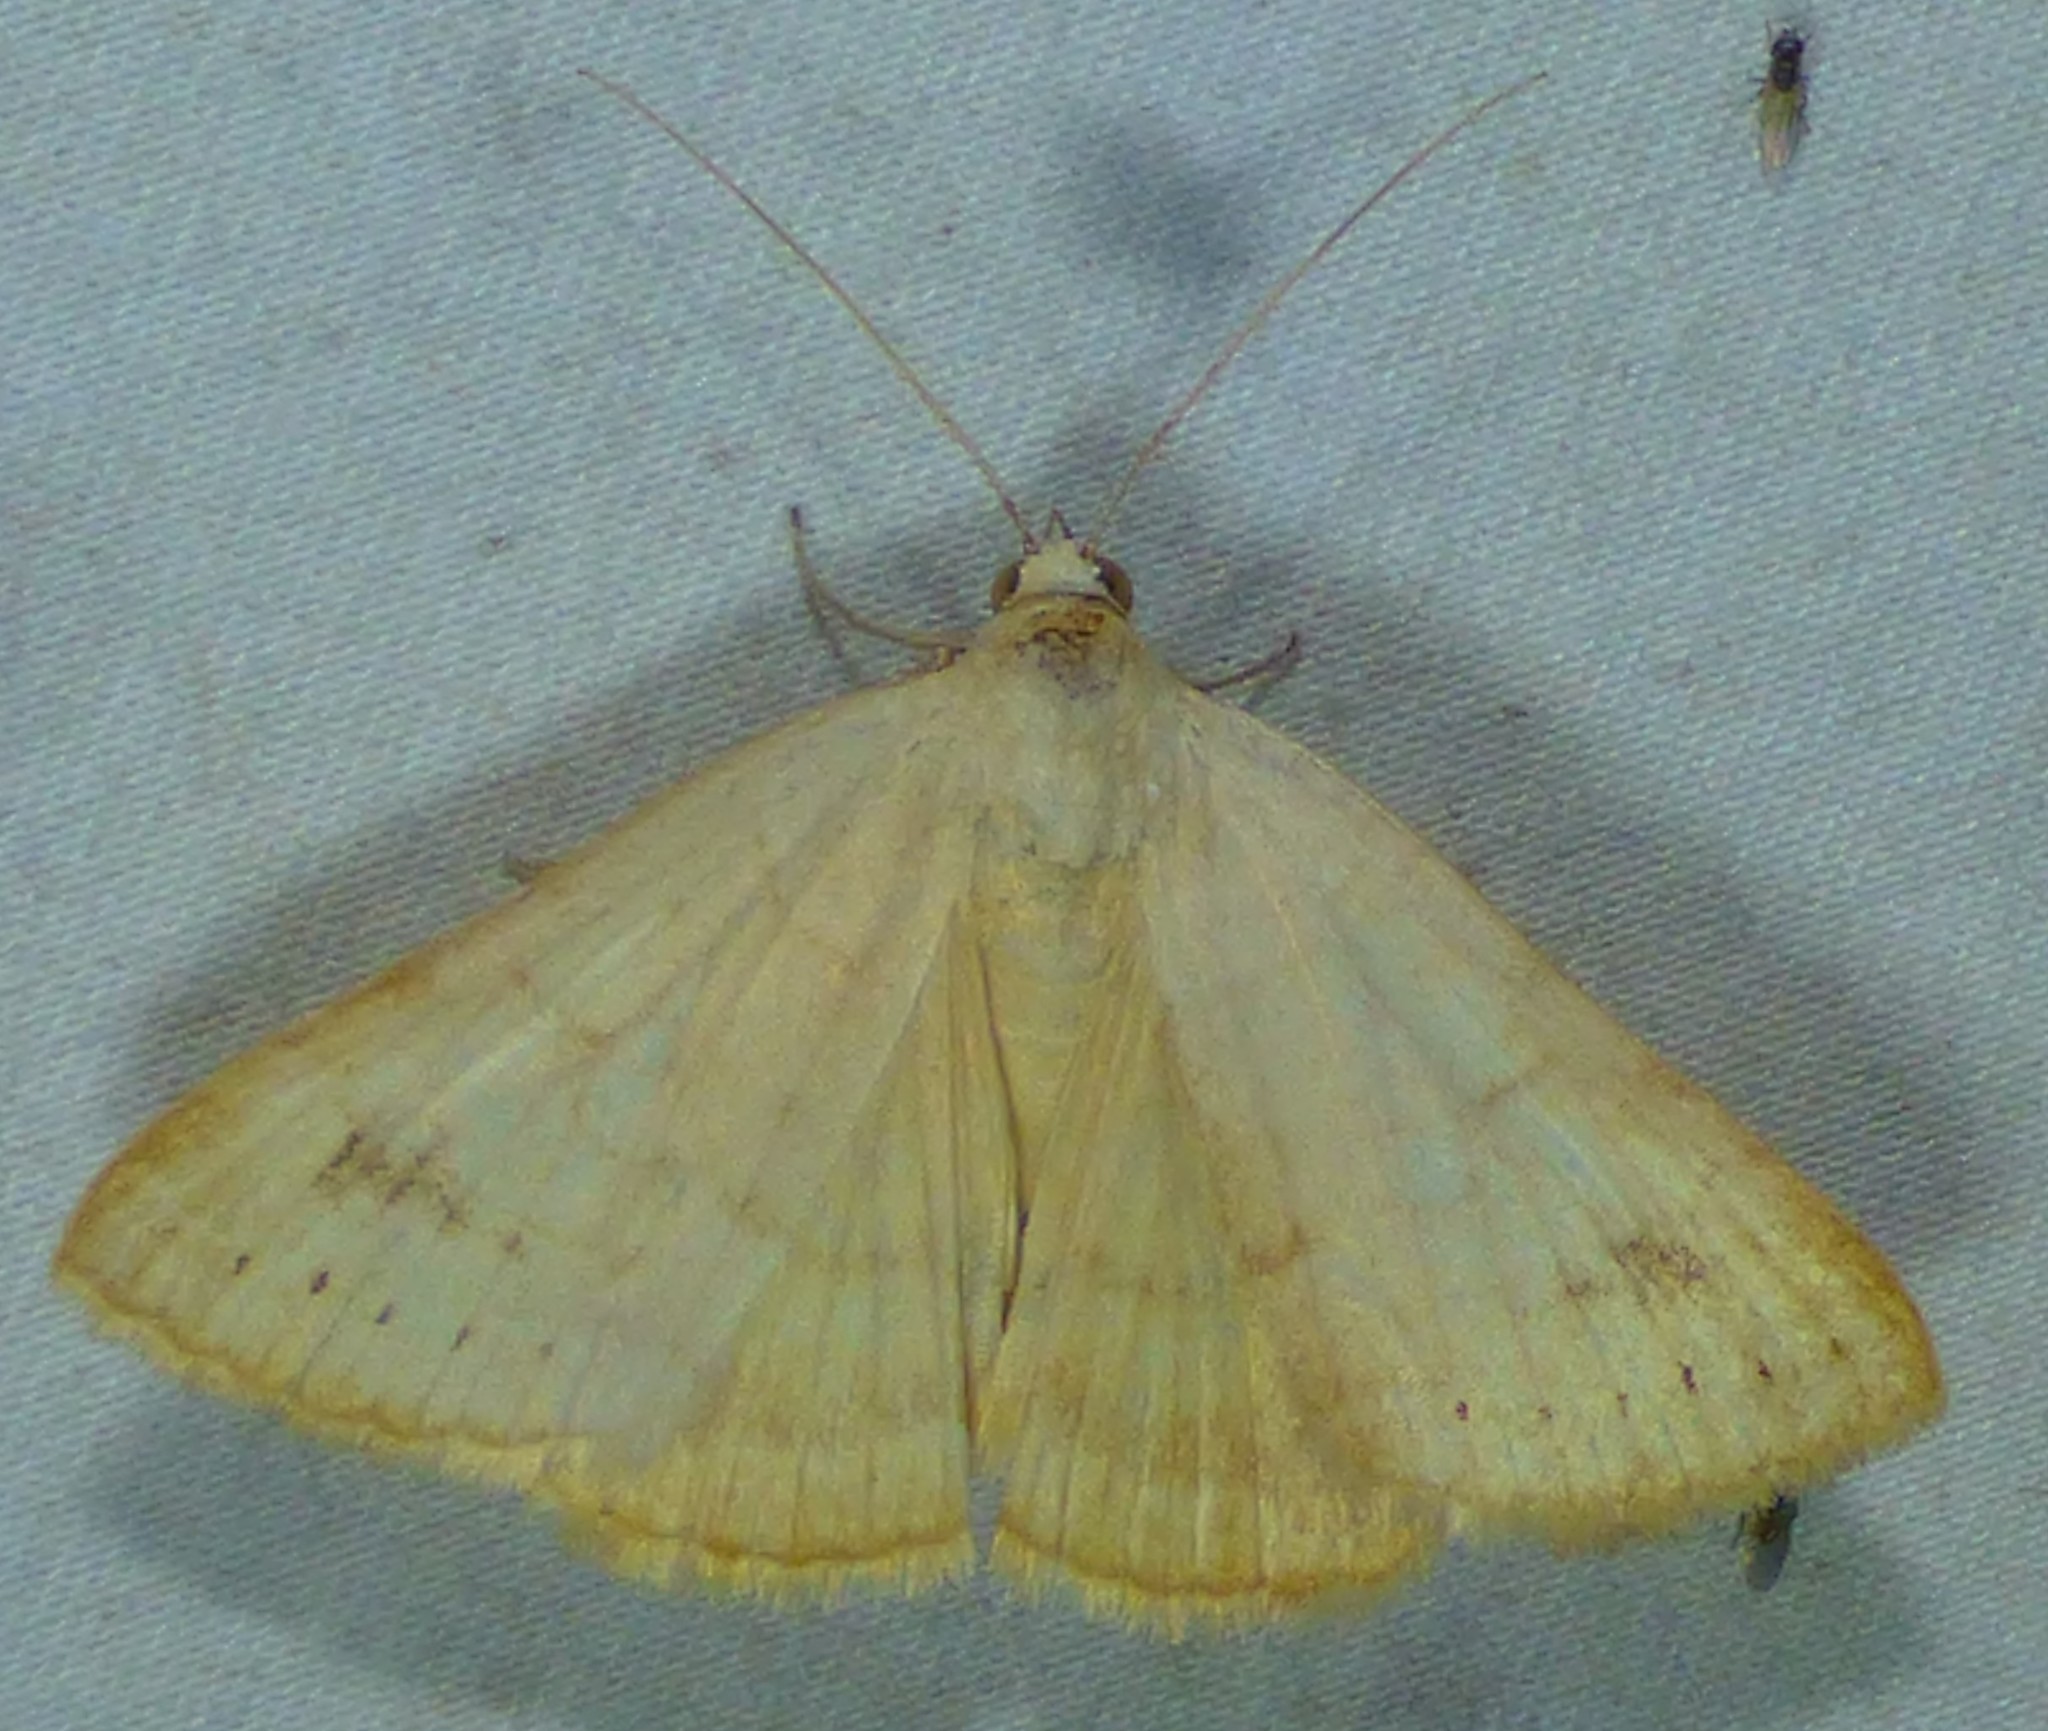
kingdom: Animalia
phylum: Arthropoda
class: Insecta
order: Lepidoptera
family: Erebidae
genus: Caenurgia
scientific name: Caenurgia chloropha
